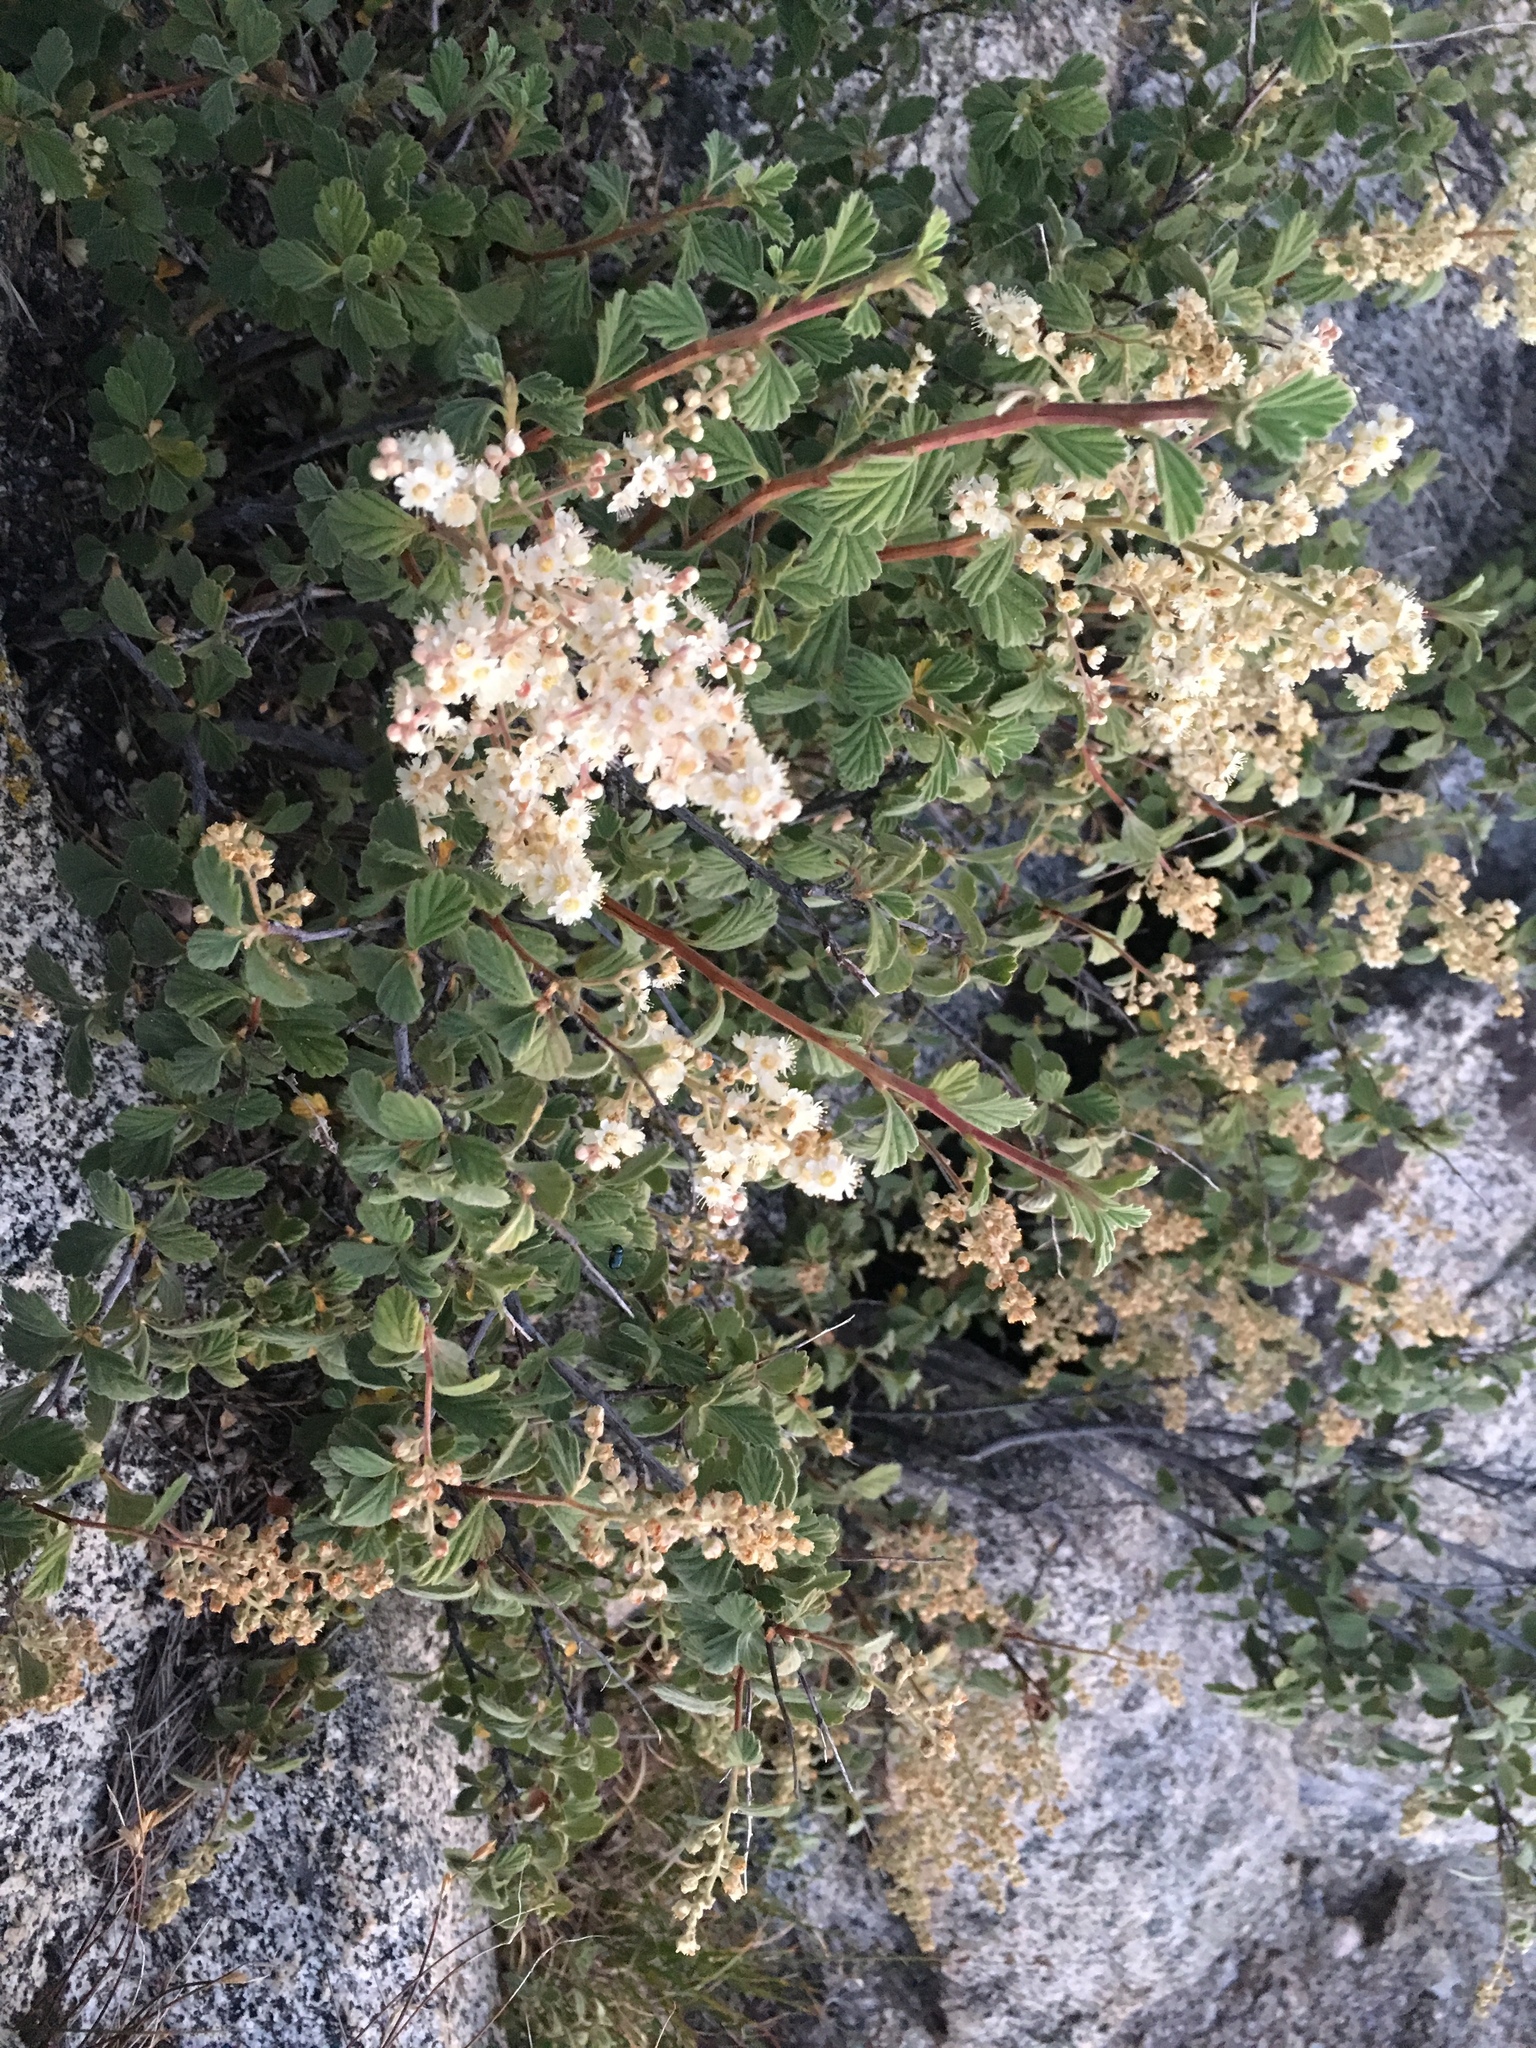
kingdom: Plantae
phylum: Tracheophyta
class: Magnoliopsida
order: Rosales
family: Rosaceae
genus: Holodiscus
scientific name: Holodiscus discolor
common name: Oceanspray
